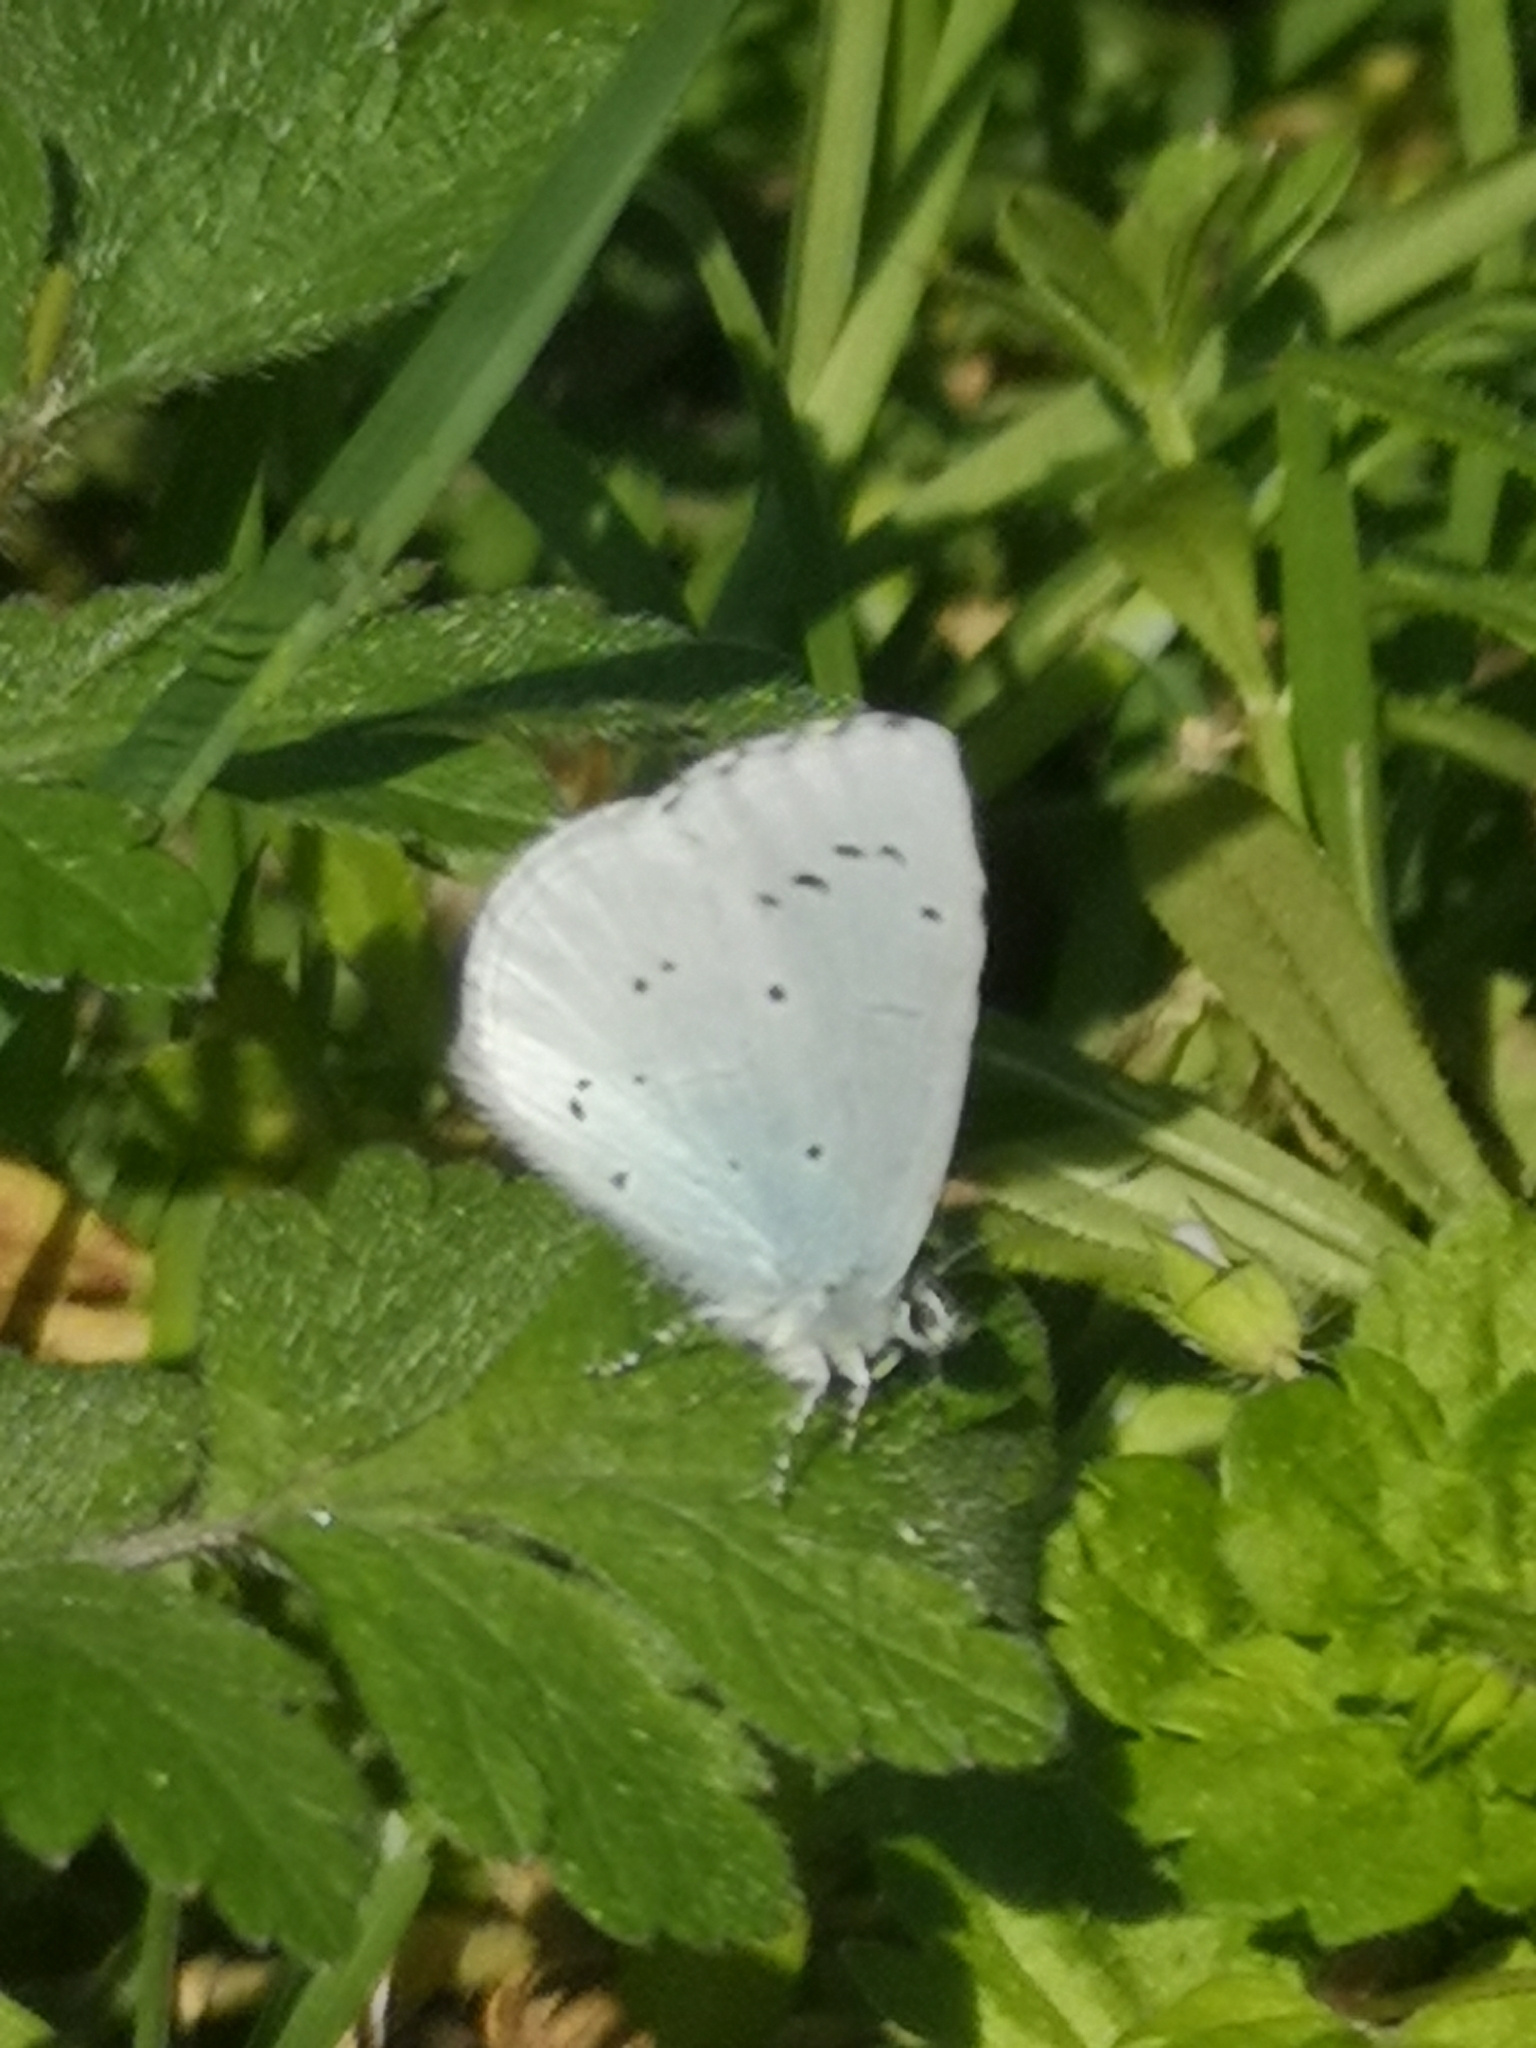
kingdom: Animalia
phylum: Arthropoda
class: Insecta
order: Lepidoptera
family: Lycaenidae
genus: Celastrina
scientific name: Celastrina argiolus
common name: Holly blue
